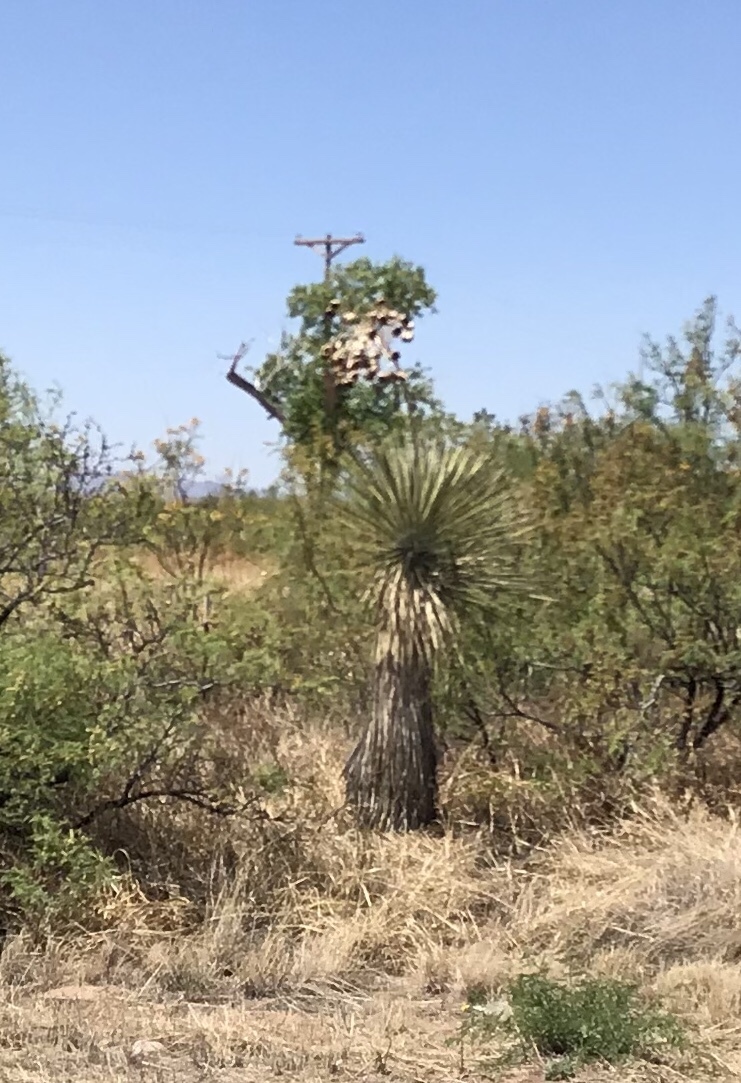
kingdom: Plantae
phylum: Tracheophyta
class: Liliopsida
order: Asparagales
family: Asparagaceae
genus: Yucca
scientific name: Yucca elata
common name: Palmella
